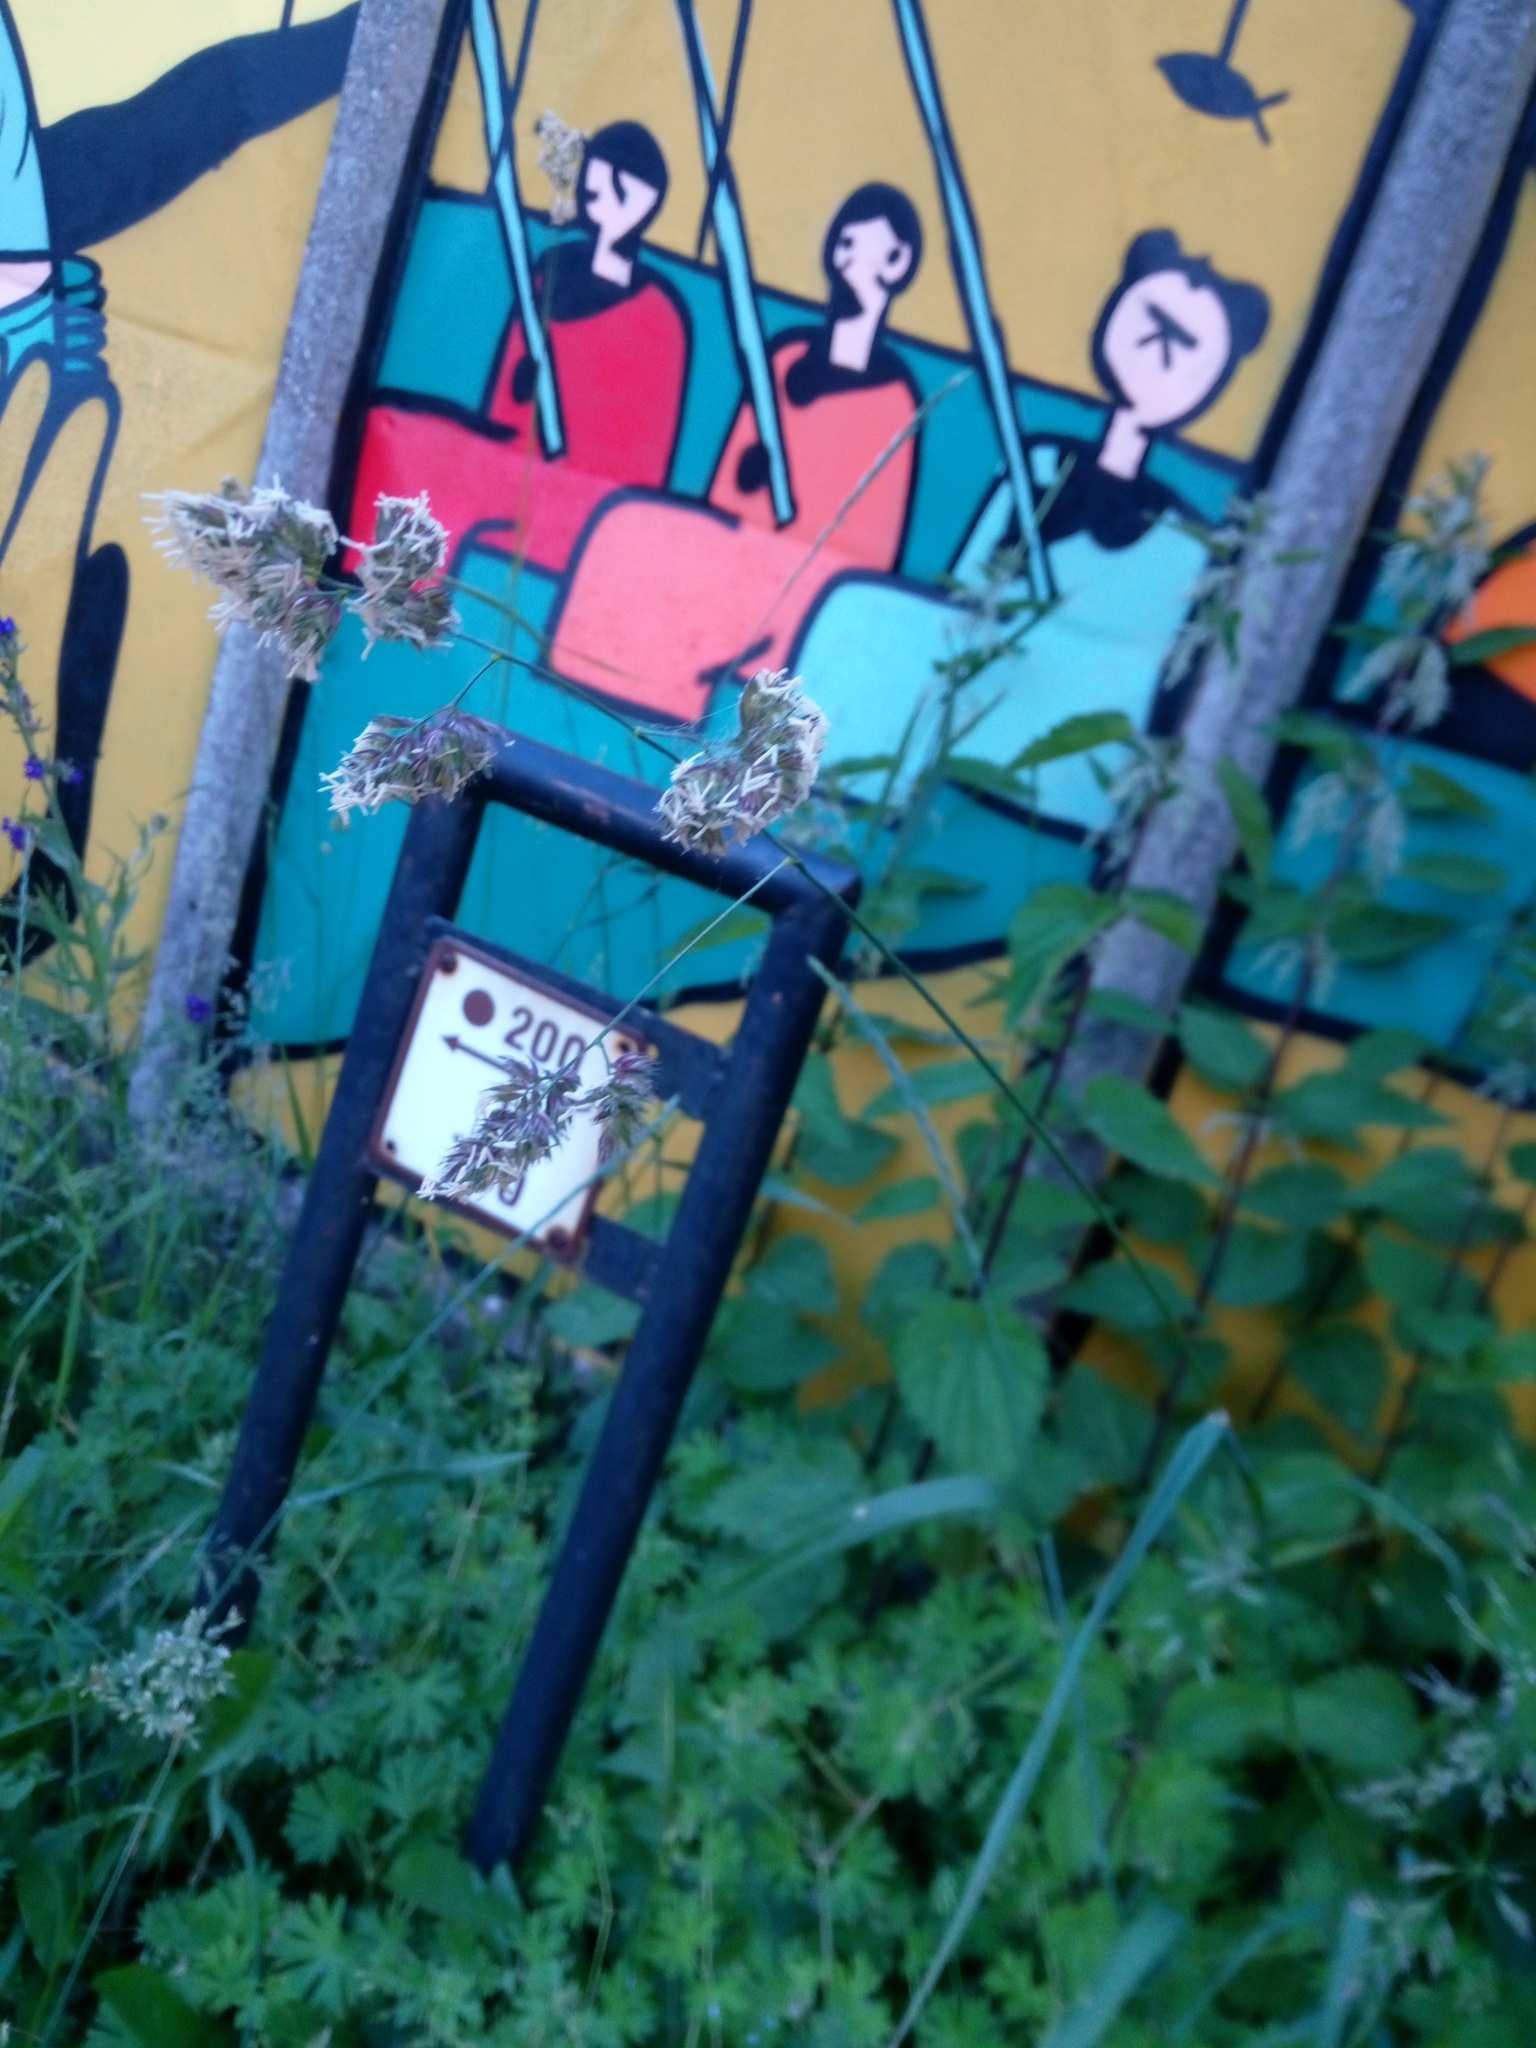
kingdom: Plantae
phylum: Tracheophyta
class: Liliopsida
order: Poales
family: Poaceae
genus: Dactylis
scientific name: Dactylis glomerata
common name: Orchardgrass
